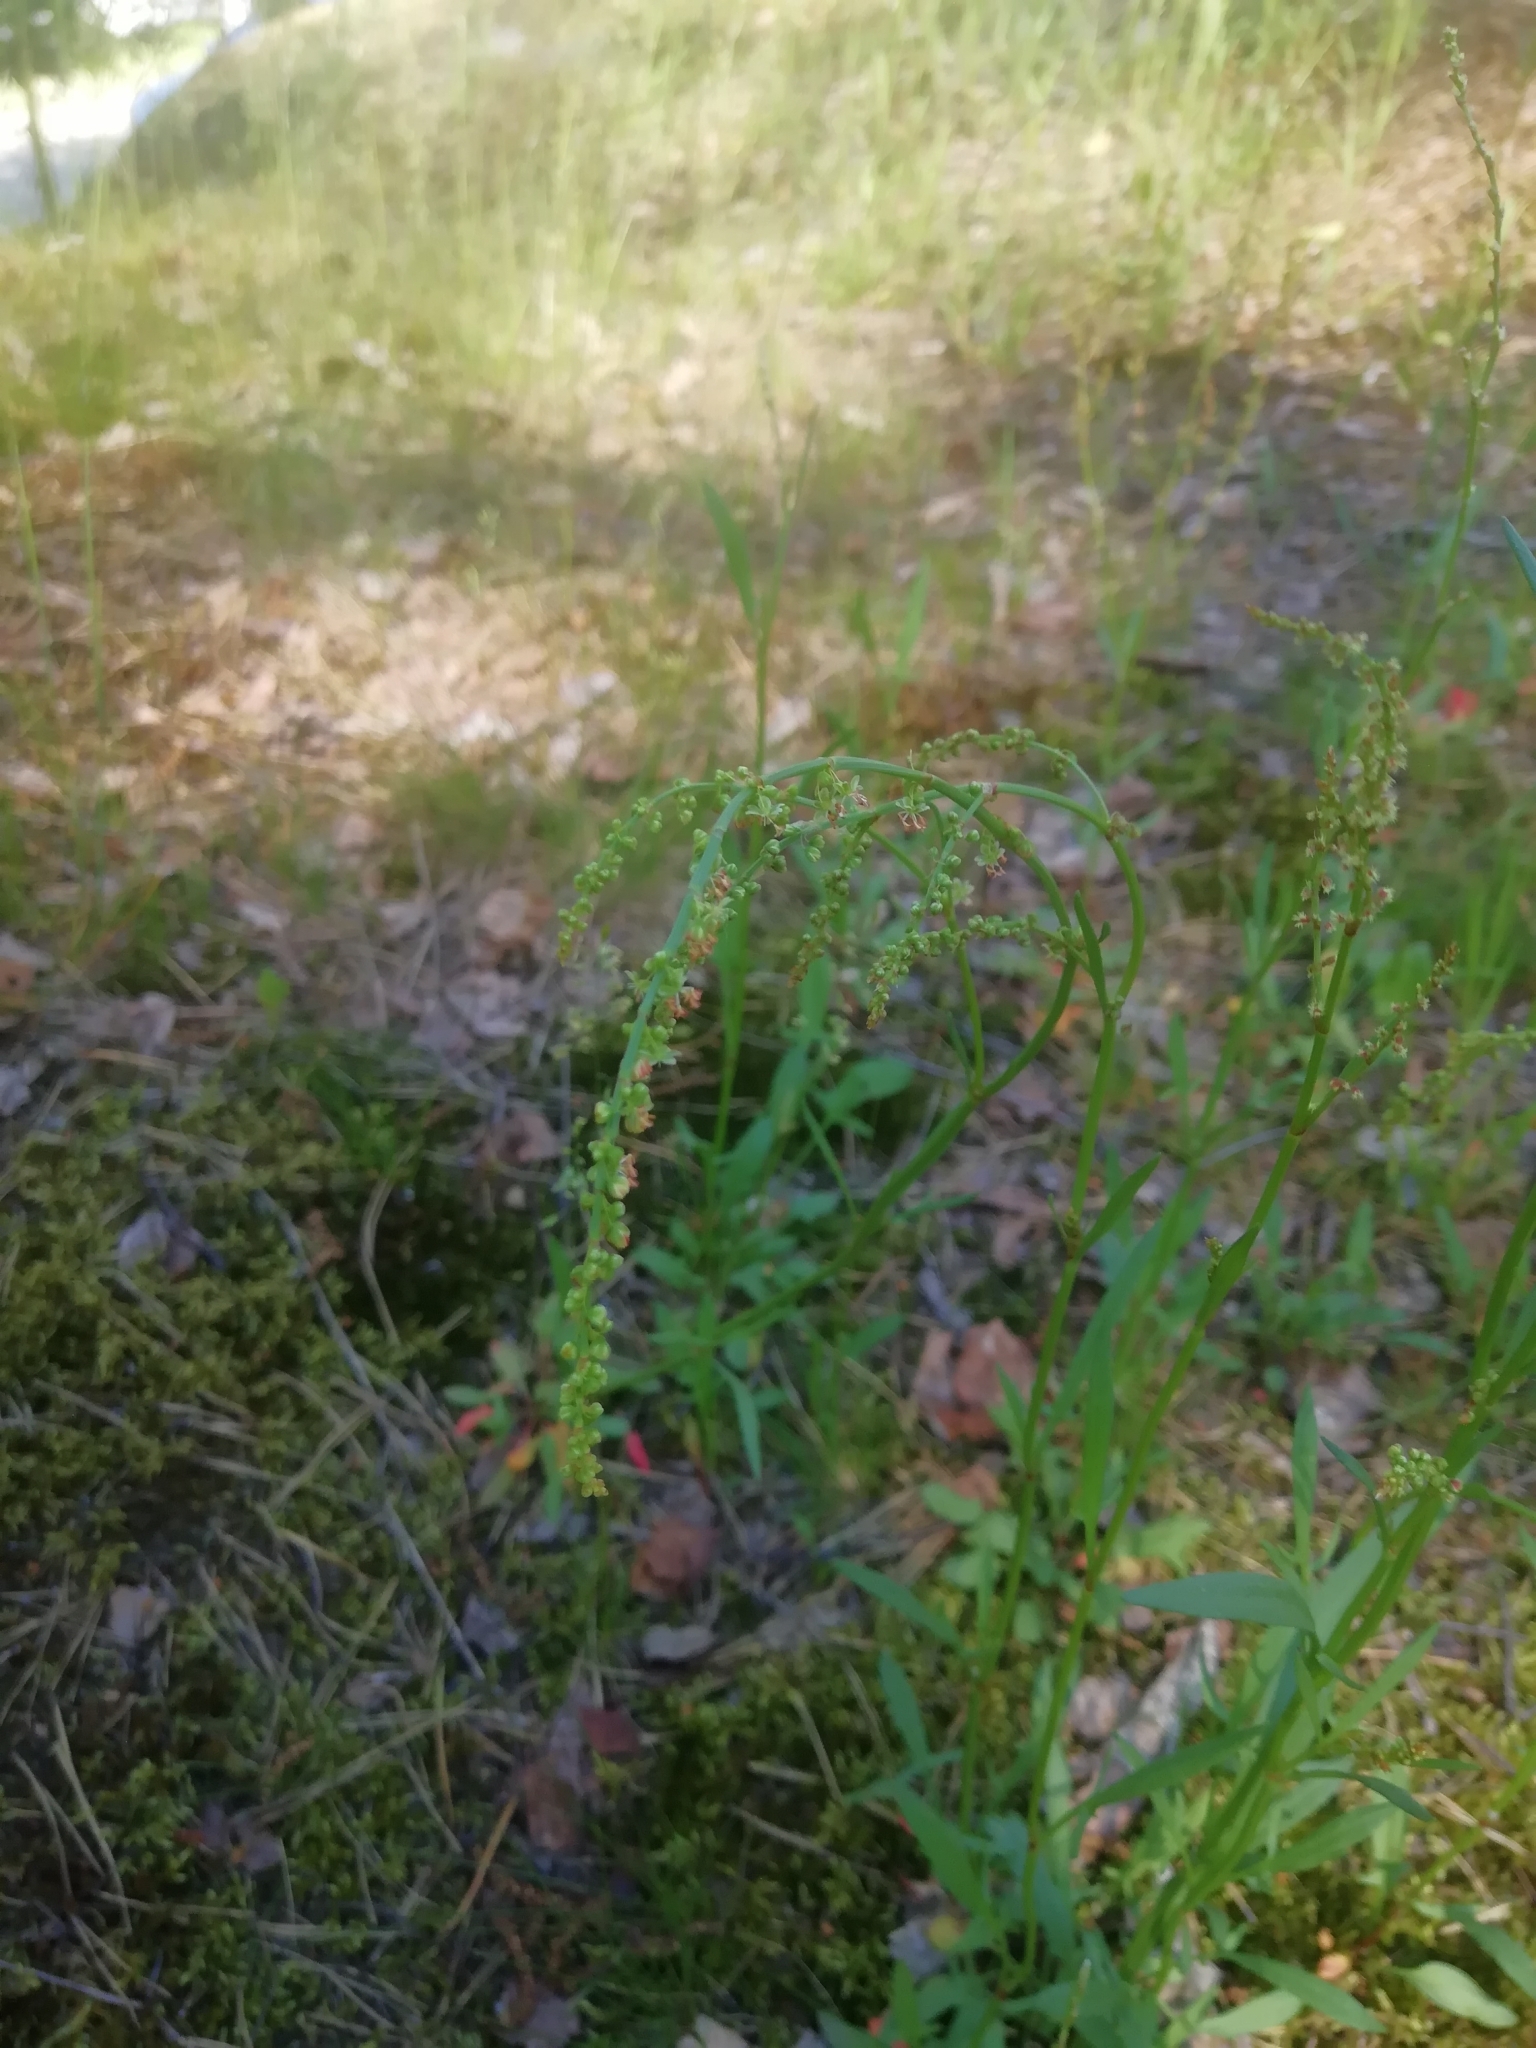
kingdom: Plantae
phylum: Tracheophyta
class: Magnoliopsida
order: Caryophyllales
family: Polygonaceae
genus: Rumex
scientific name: Rumex acetosella
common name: Common sheep sorrel
